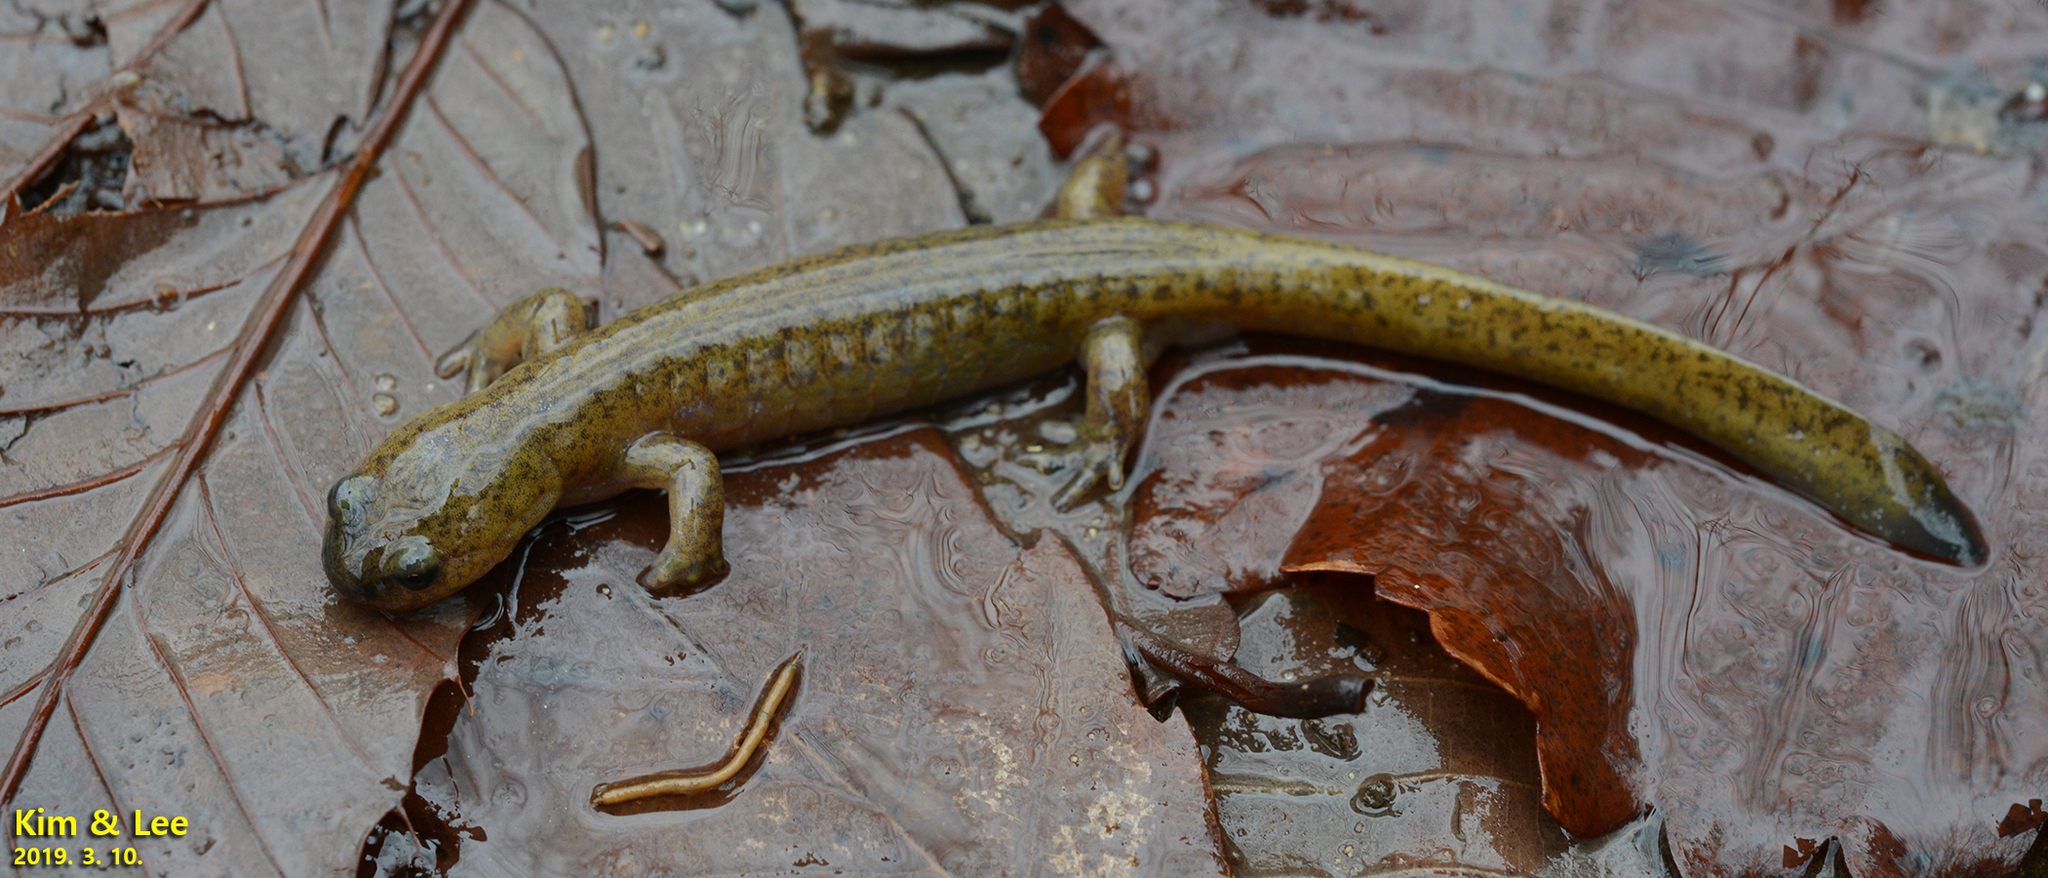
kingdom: Animalia
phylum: Chordata
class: Amphibia
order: Caudata
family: Hynobiidae
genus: Hynobius
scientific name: Hynobius quelpaertensis
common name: Cheju salamander
